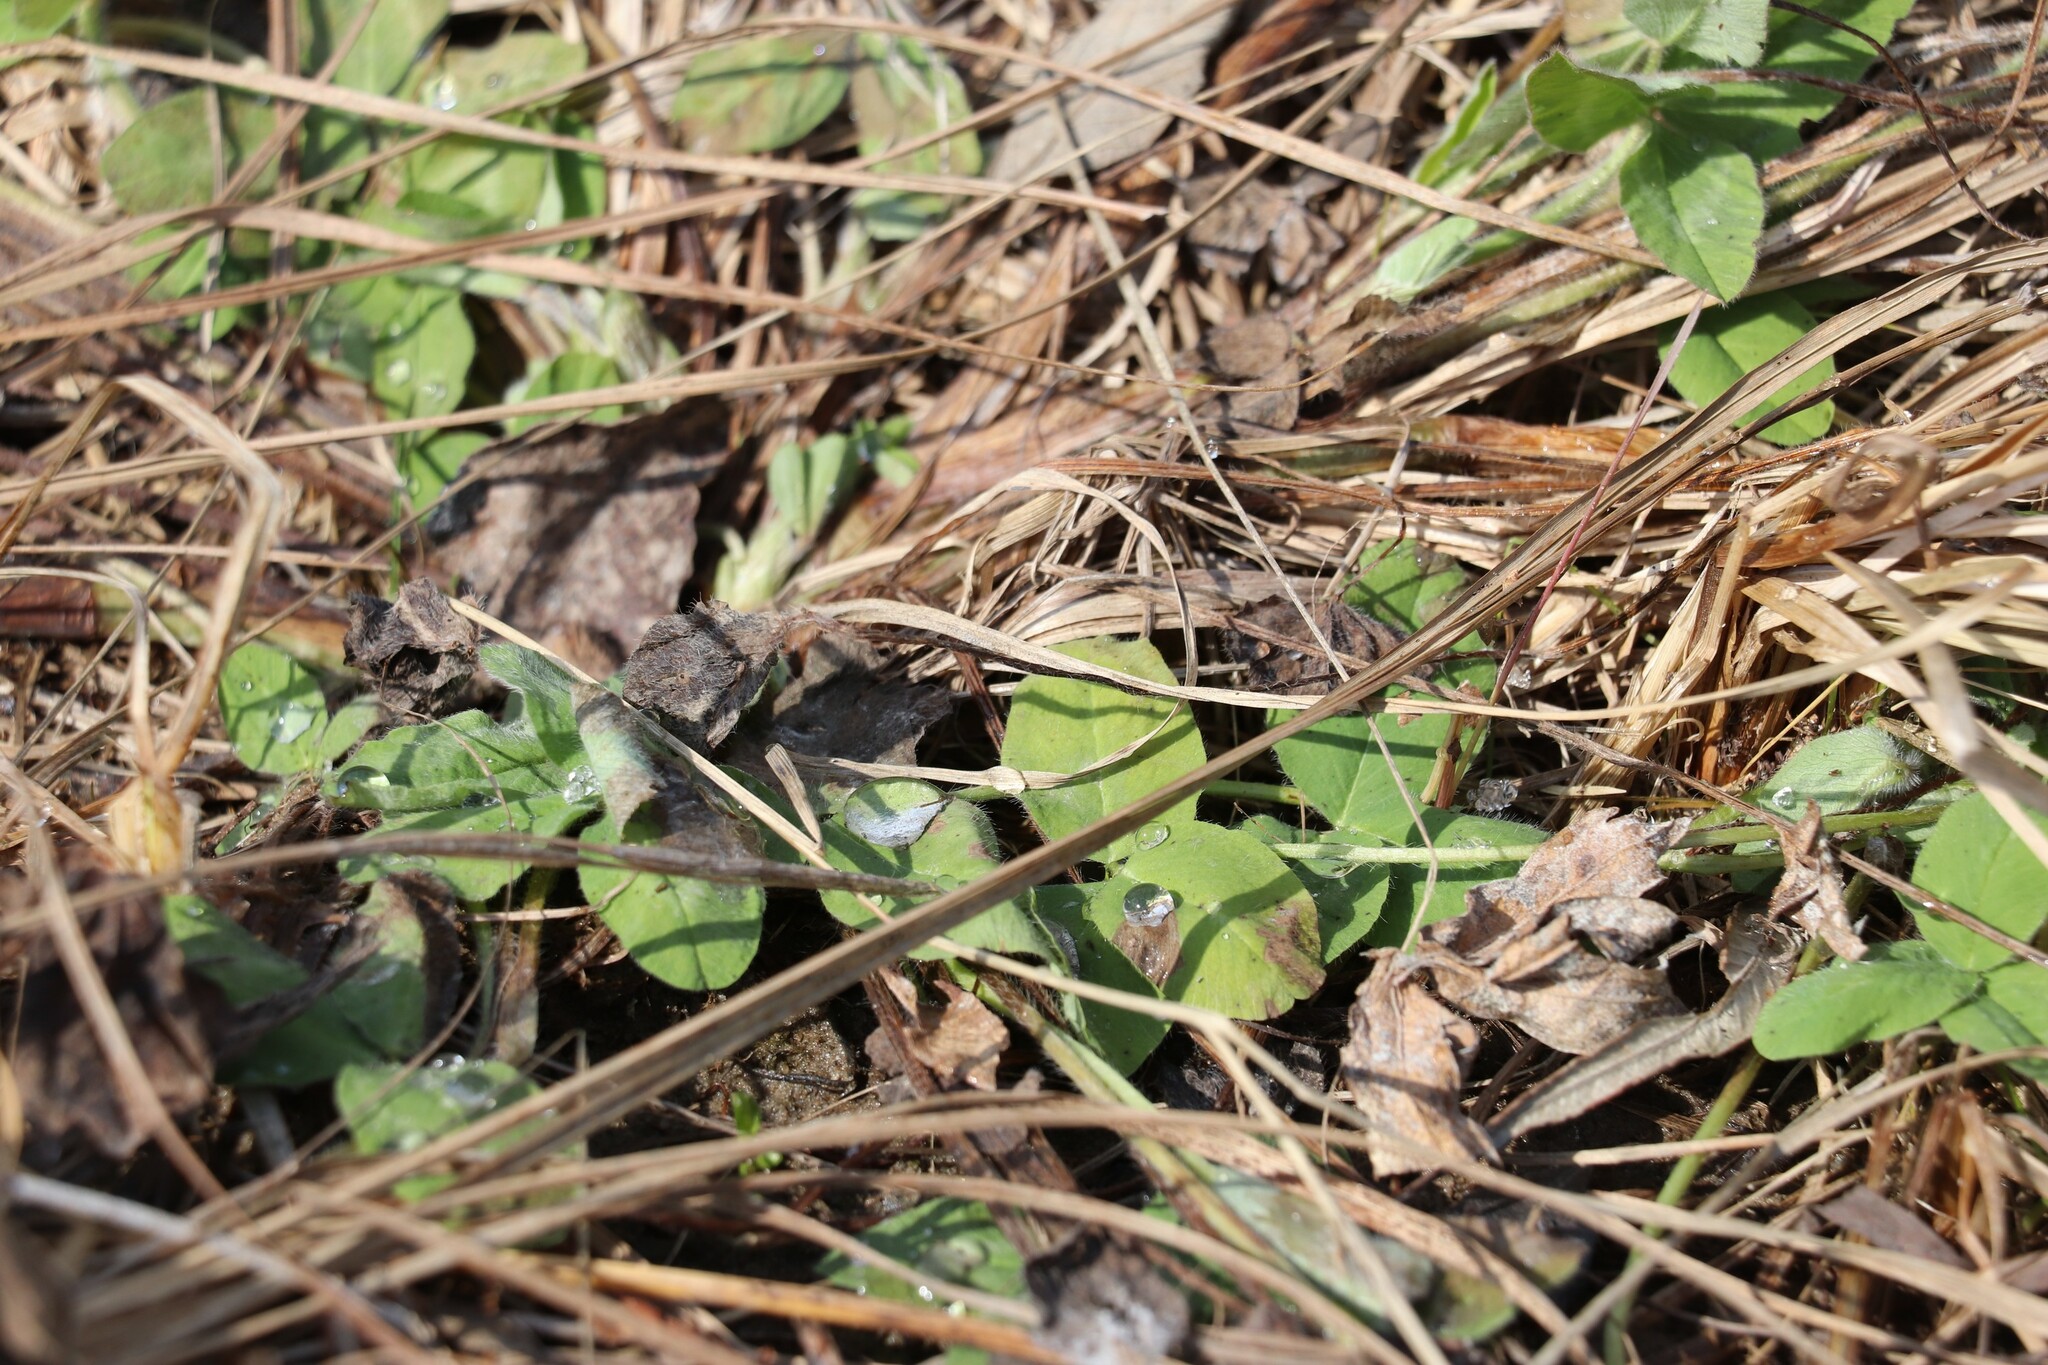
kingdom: Plantae
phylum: Tracheophyta
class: Magnoliopsida
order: Fabales
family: Fabaceae
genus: Trifolium
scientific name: Trifolium pratense
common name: Red clover
